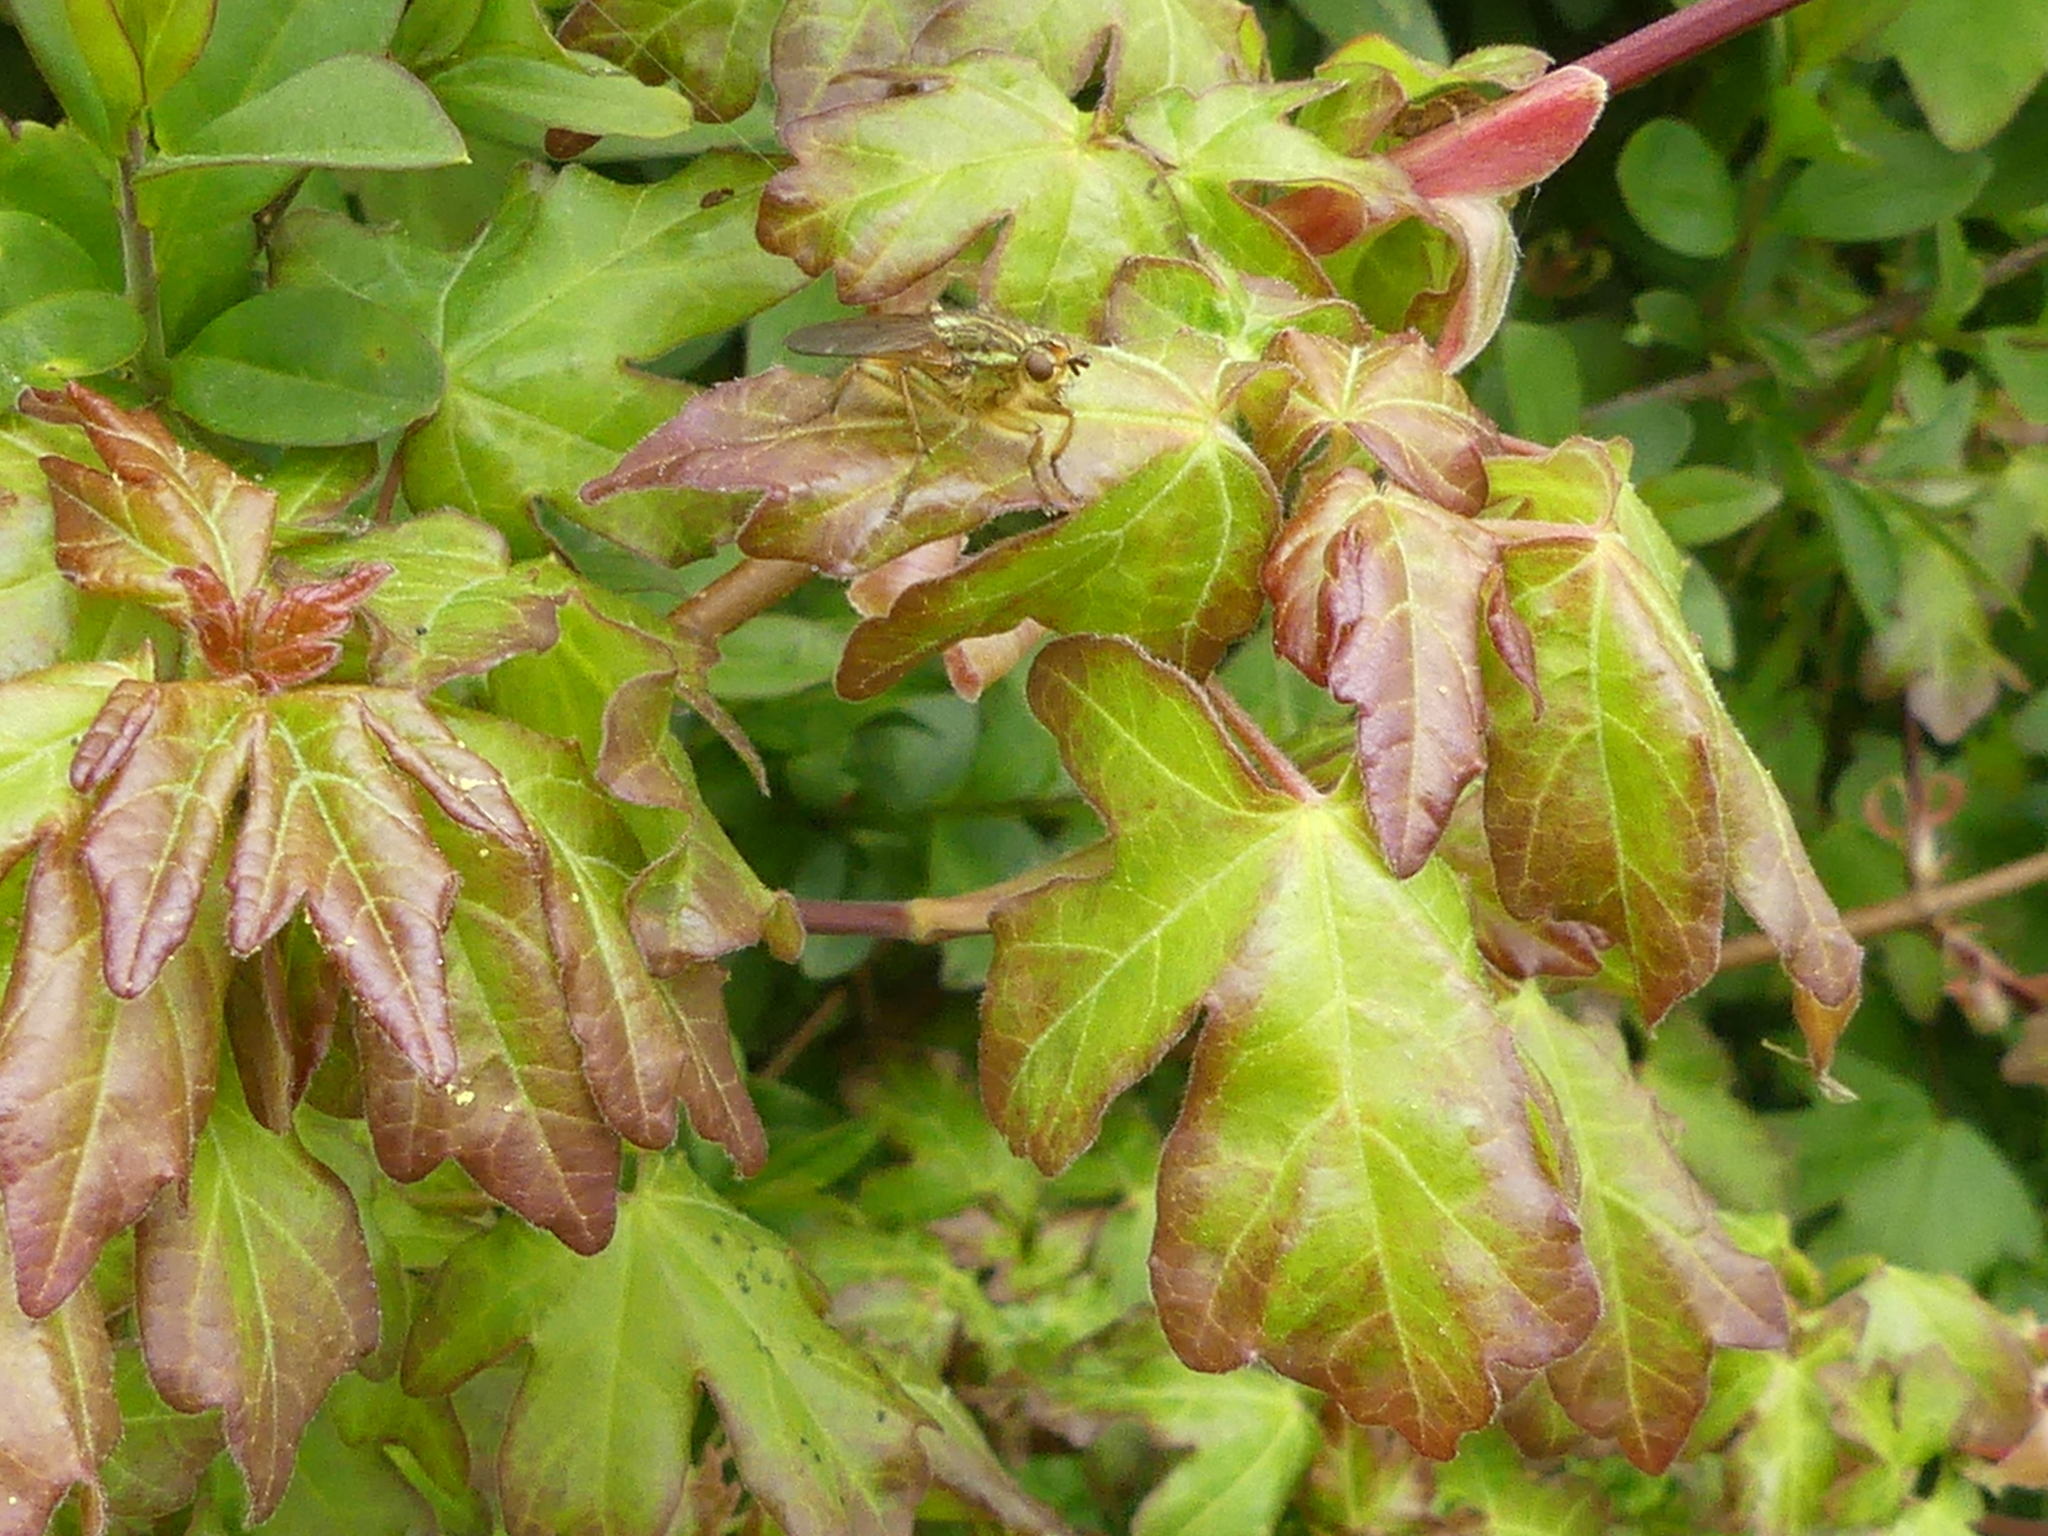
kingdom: Animalia
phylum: Arthropoda
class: Insecta
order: Diptera
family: Scathophagidae
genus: Scathophaga
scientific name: Scathophaga stercoraria
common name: Yellow dung fly
